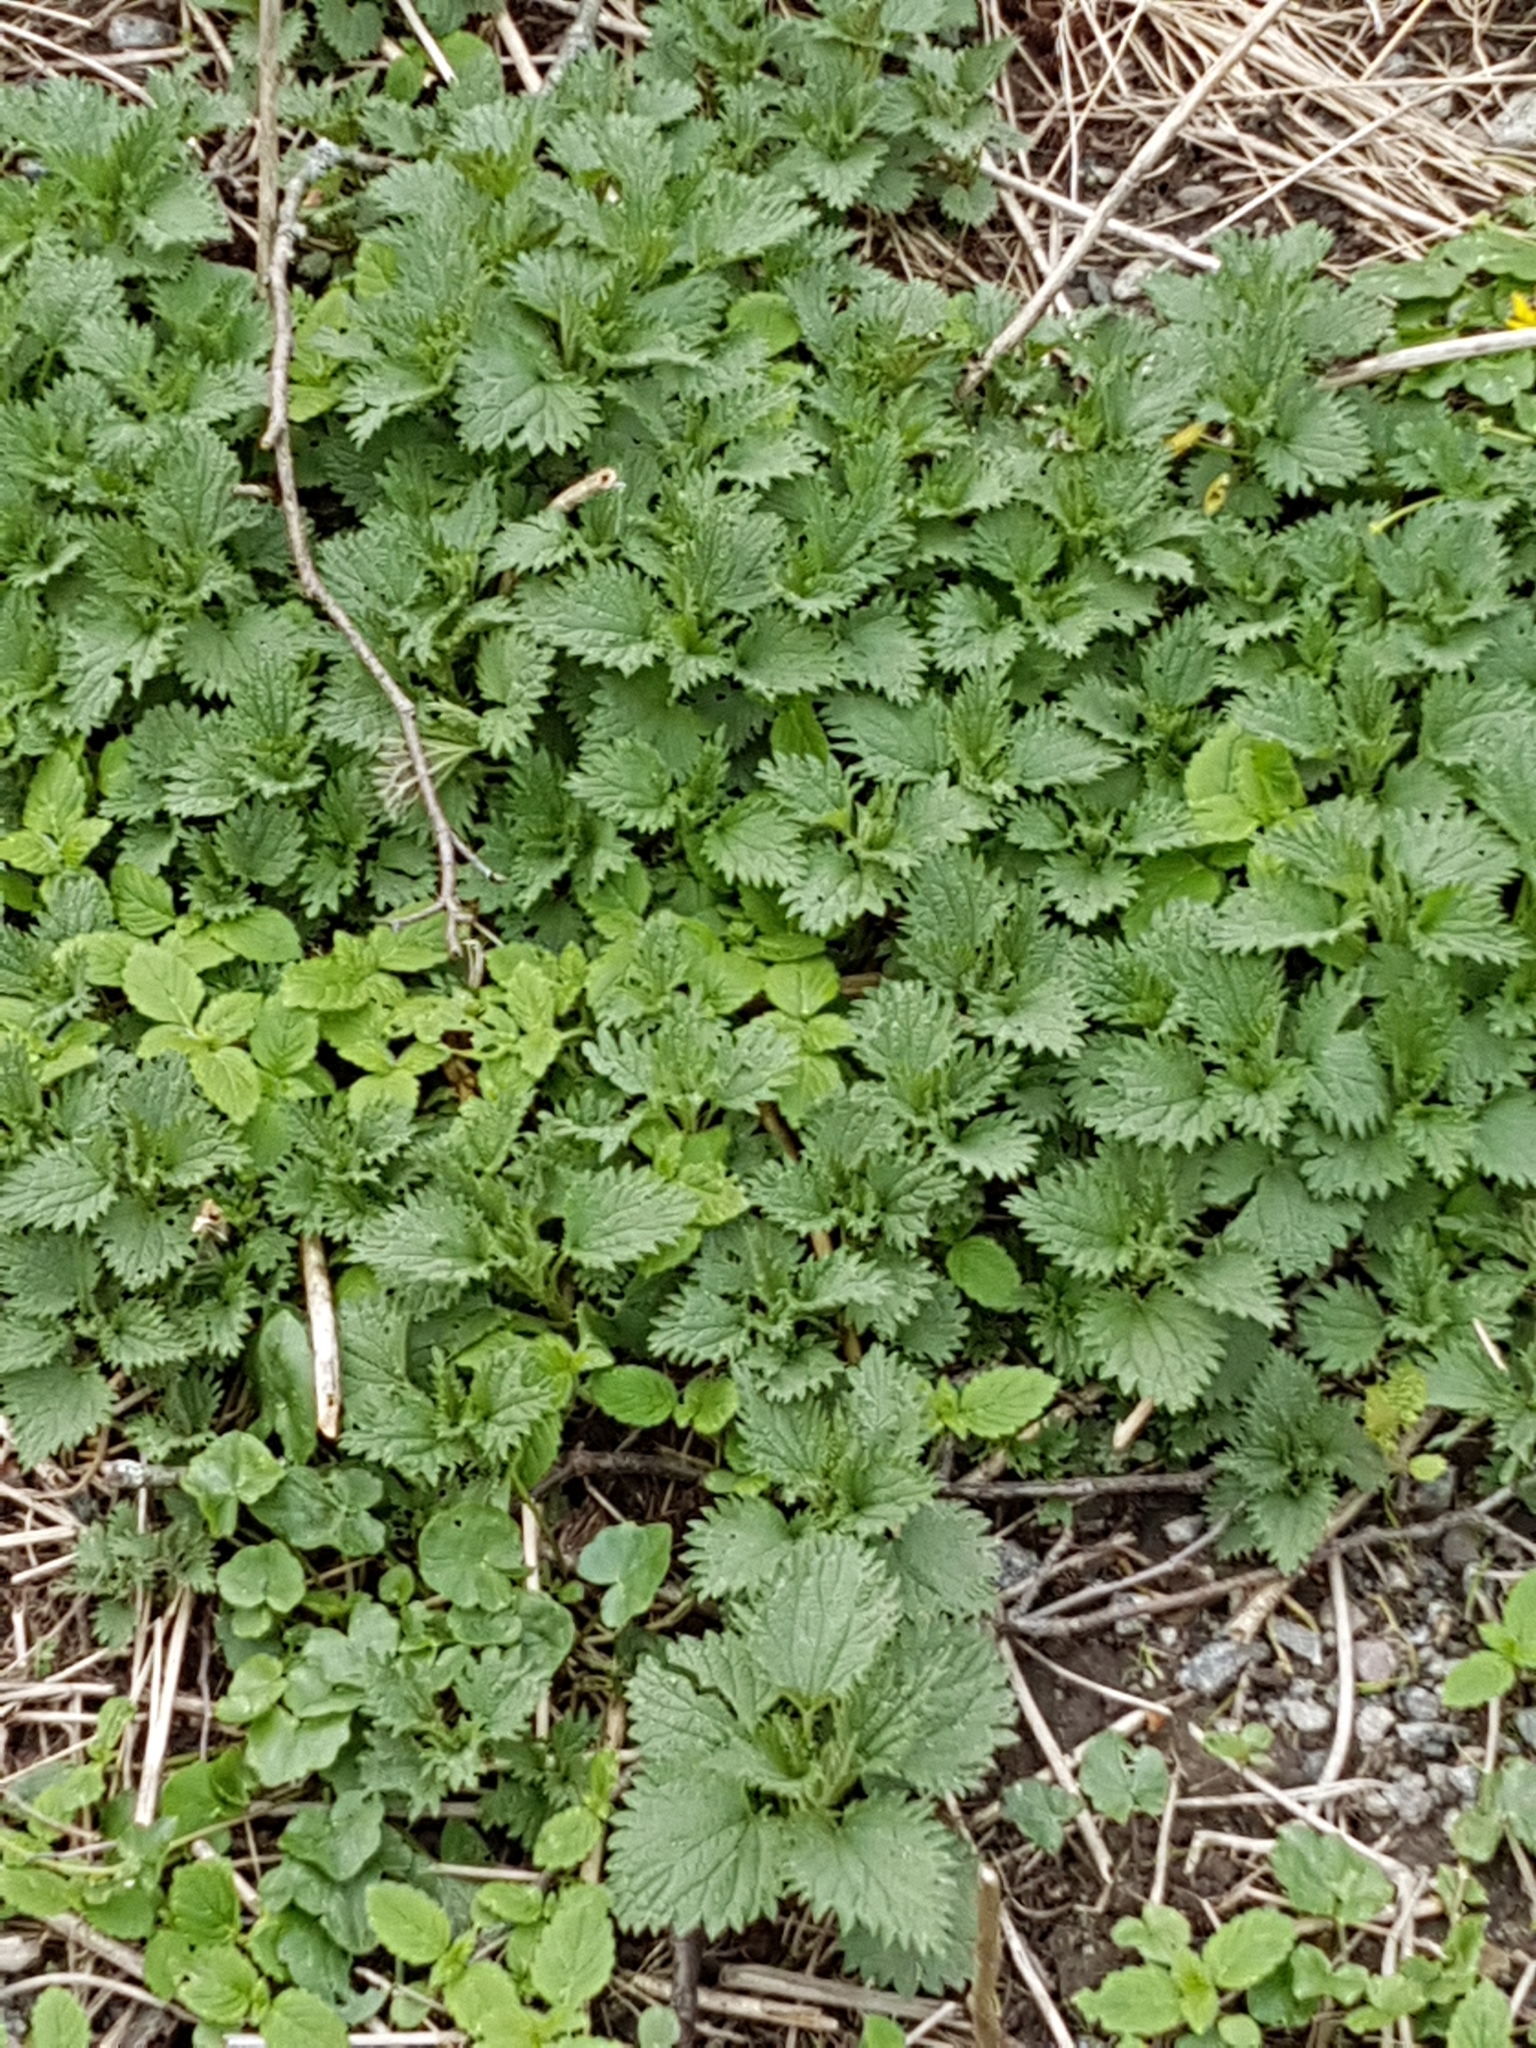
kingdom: Plantae
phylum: Tracheophyta
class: Magnoliopsida
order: Rosales
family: Urticaceae
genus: Urtica
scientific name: Urtica dioica
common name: Common nettle
